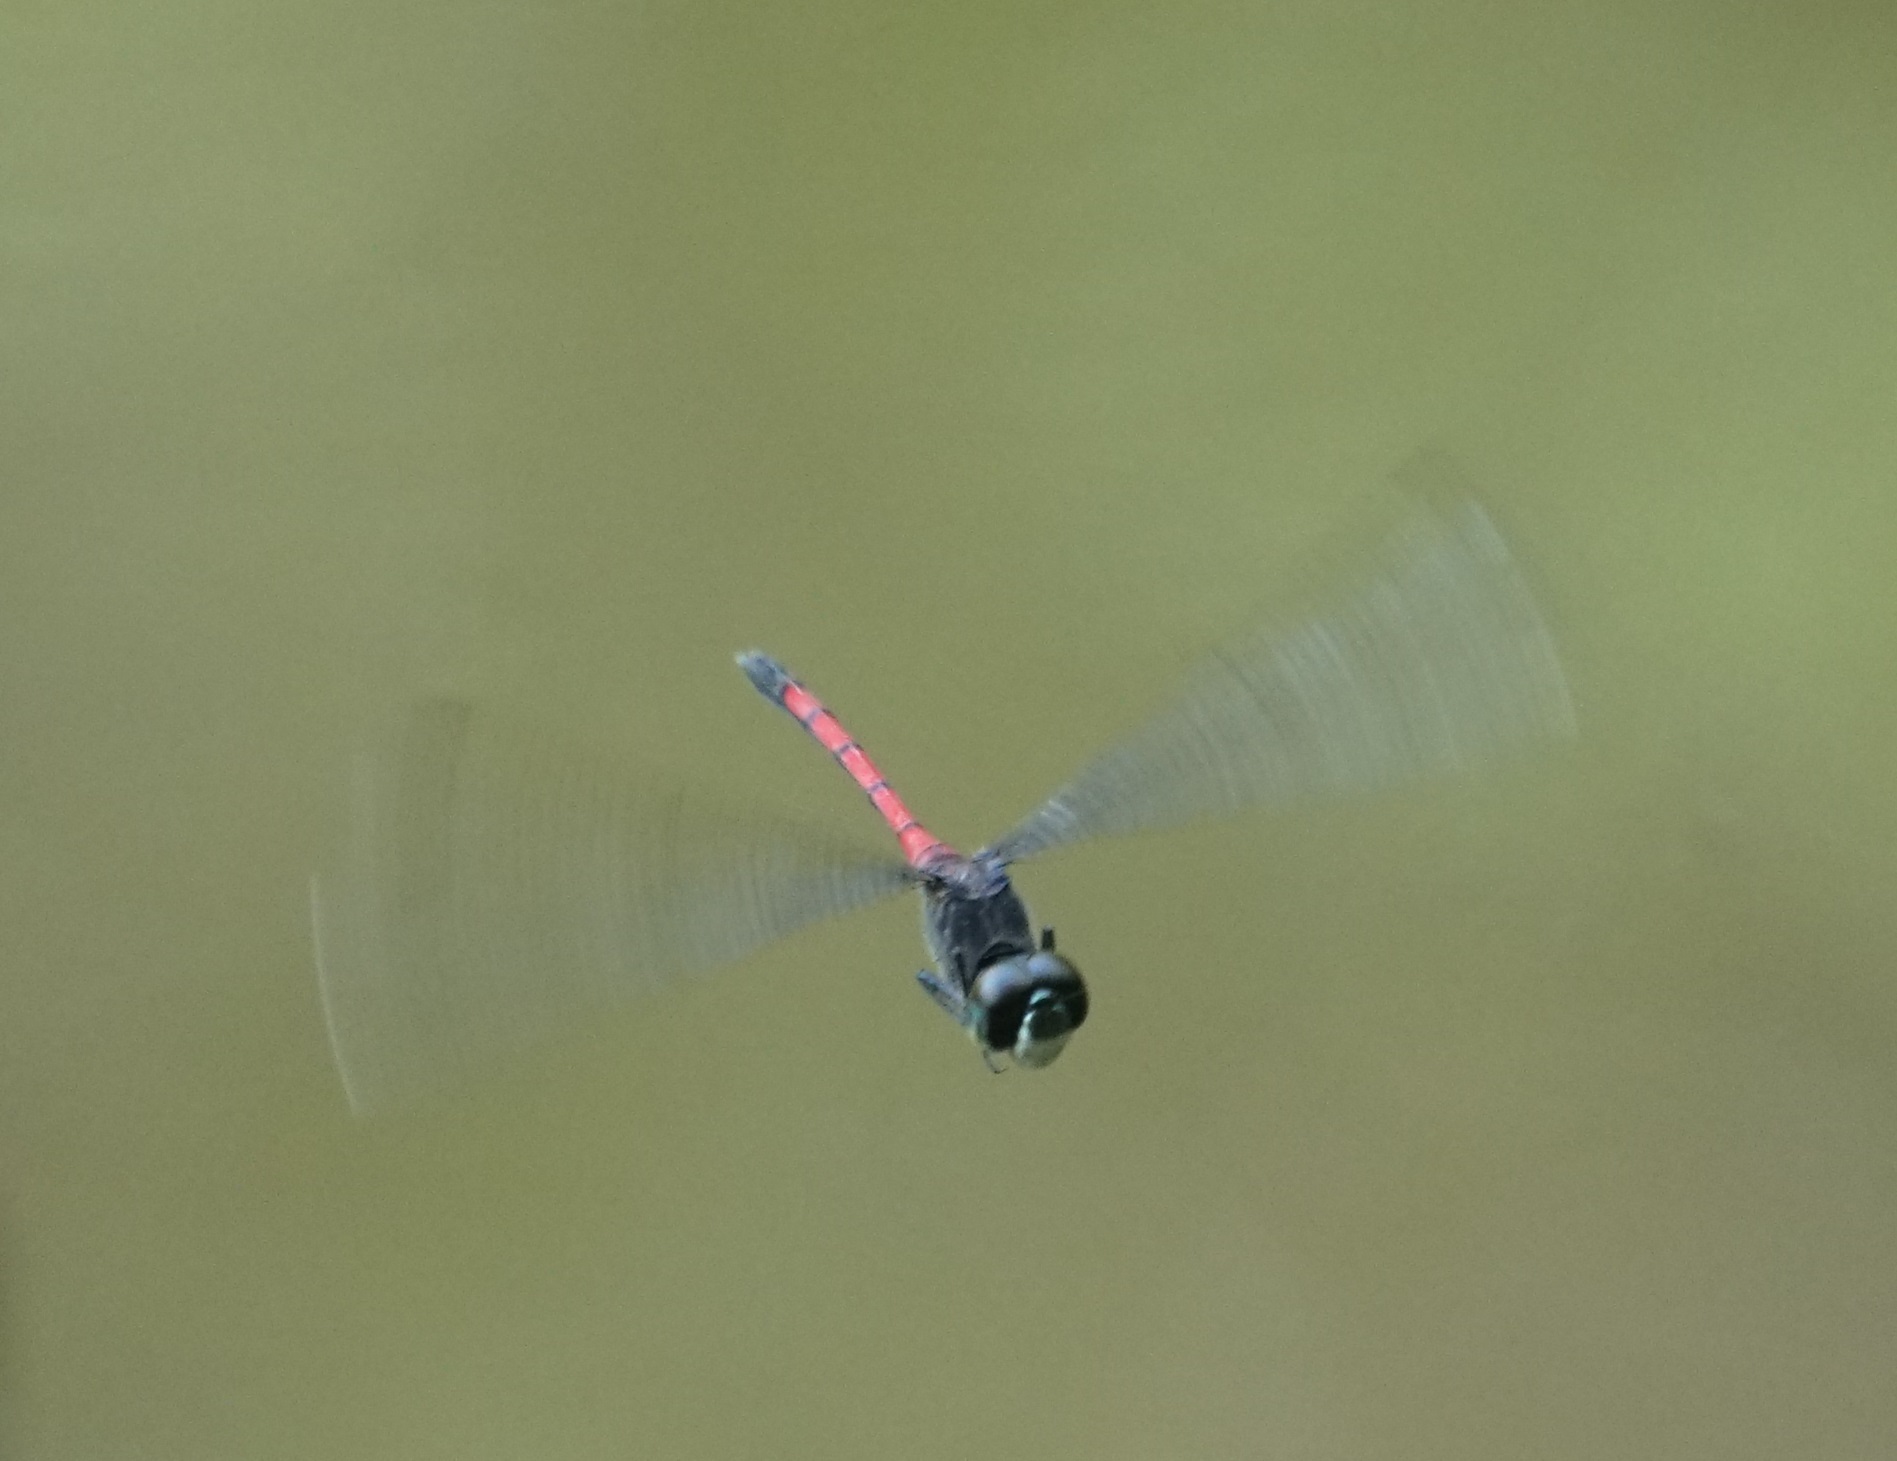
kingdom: Animalia
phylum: Arthropoda
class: Insecta
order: Odonata
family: Libellulidae
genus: Agrionoptera
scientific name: Agrionoptera insignis
